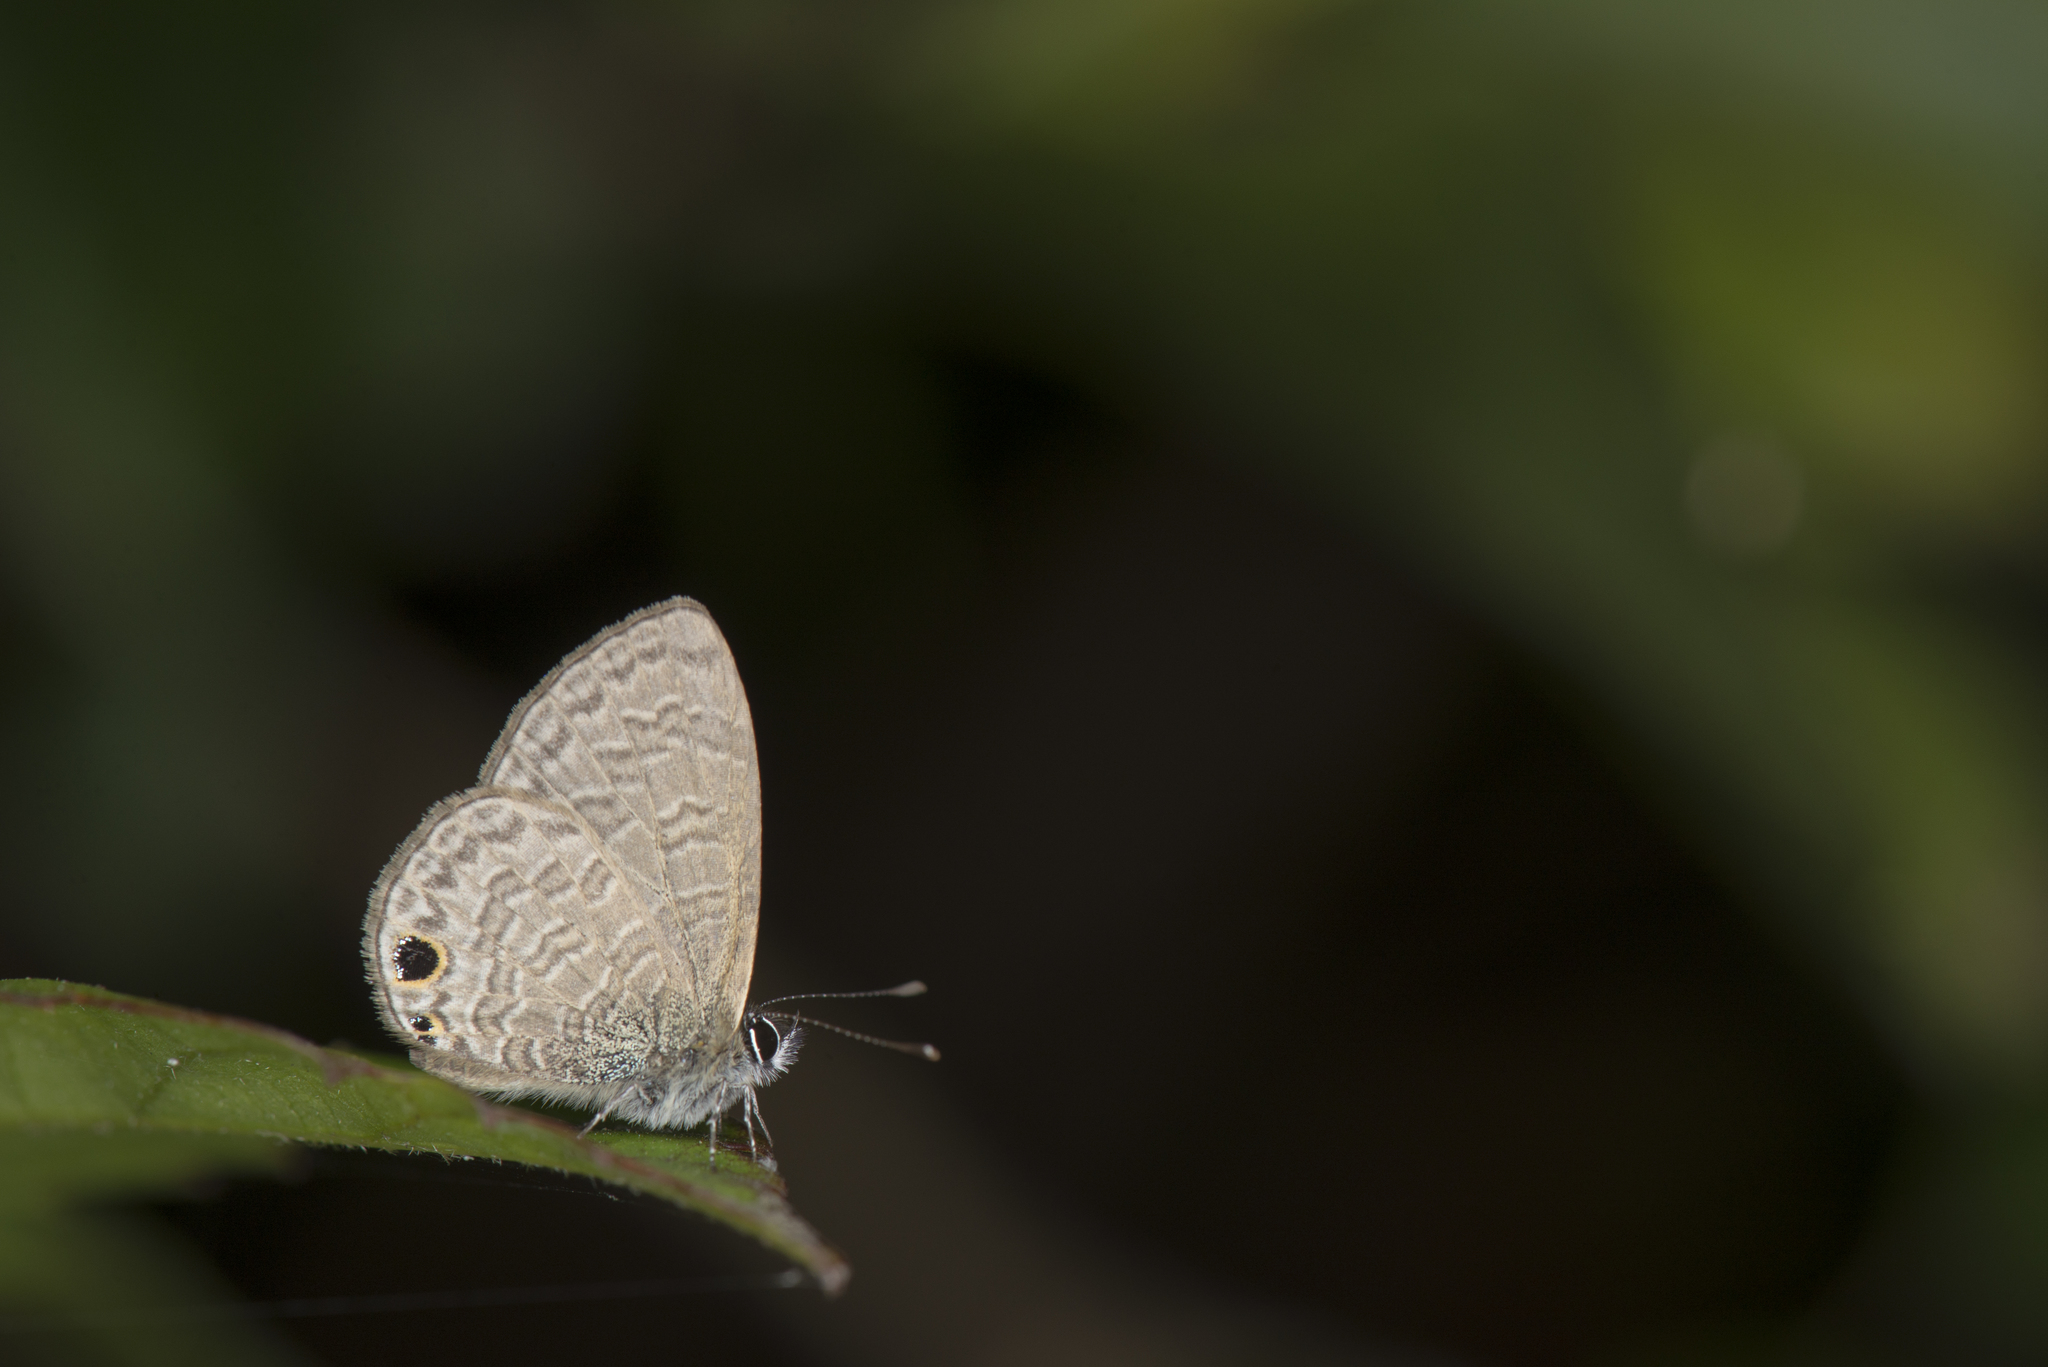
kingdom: Animalia
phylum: Arthropoda
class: Insecta
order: Lepidoptera
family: Lycaenidae
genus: Prosotas
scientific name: Prosotas dubiosa
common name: Tailless lineblue
